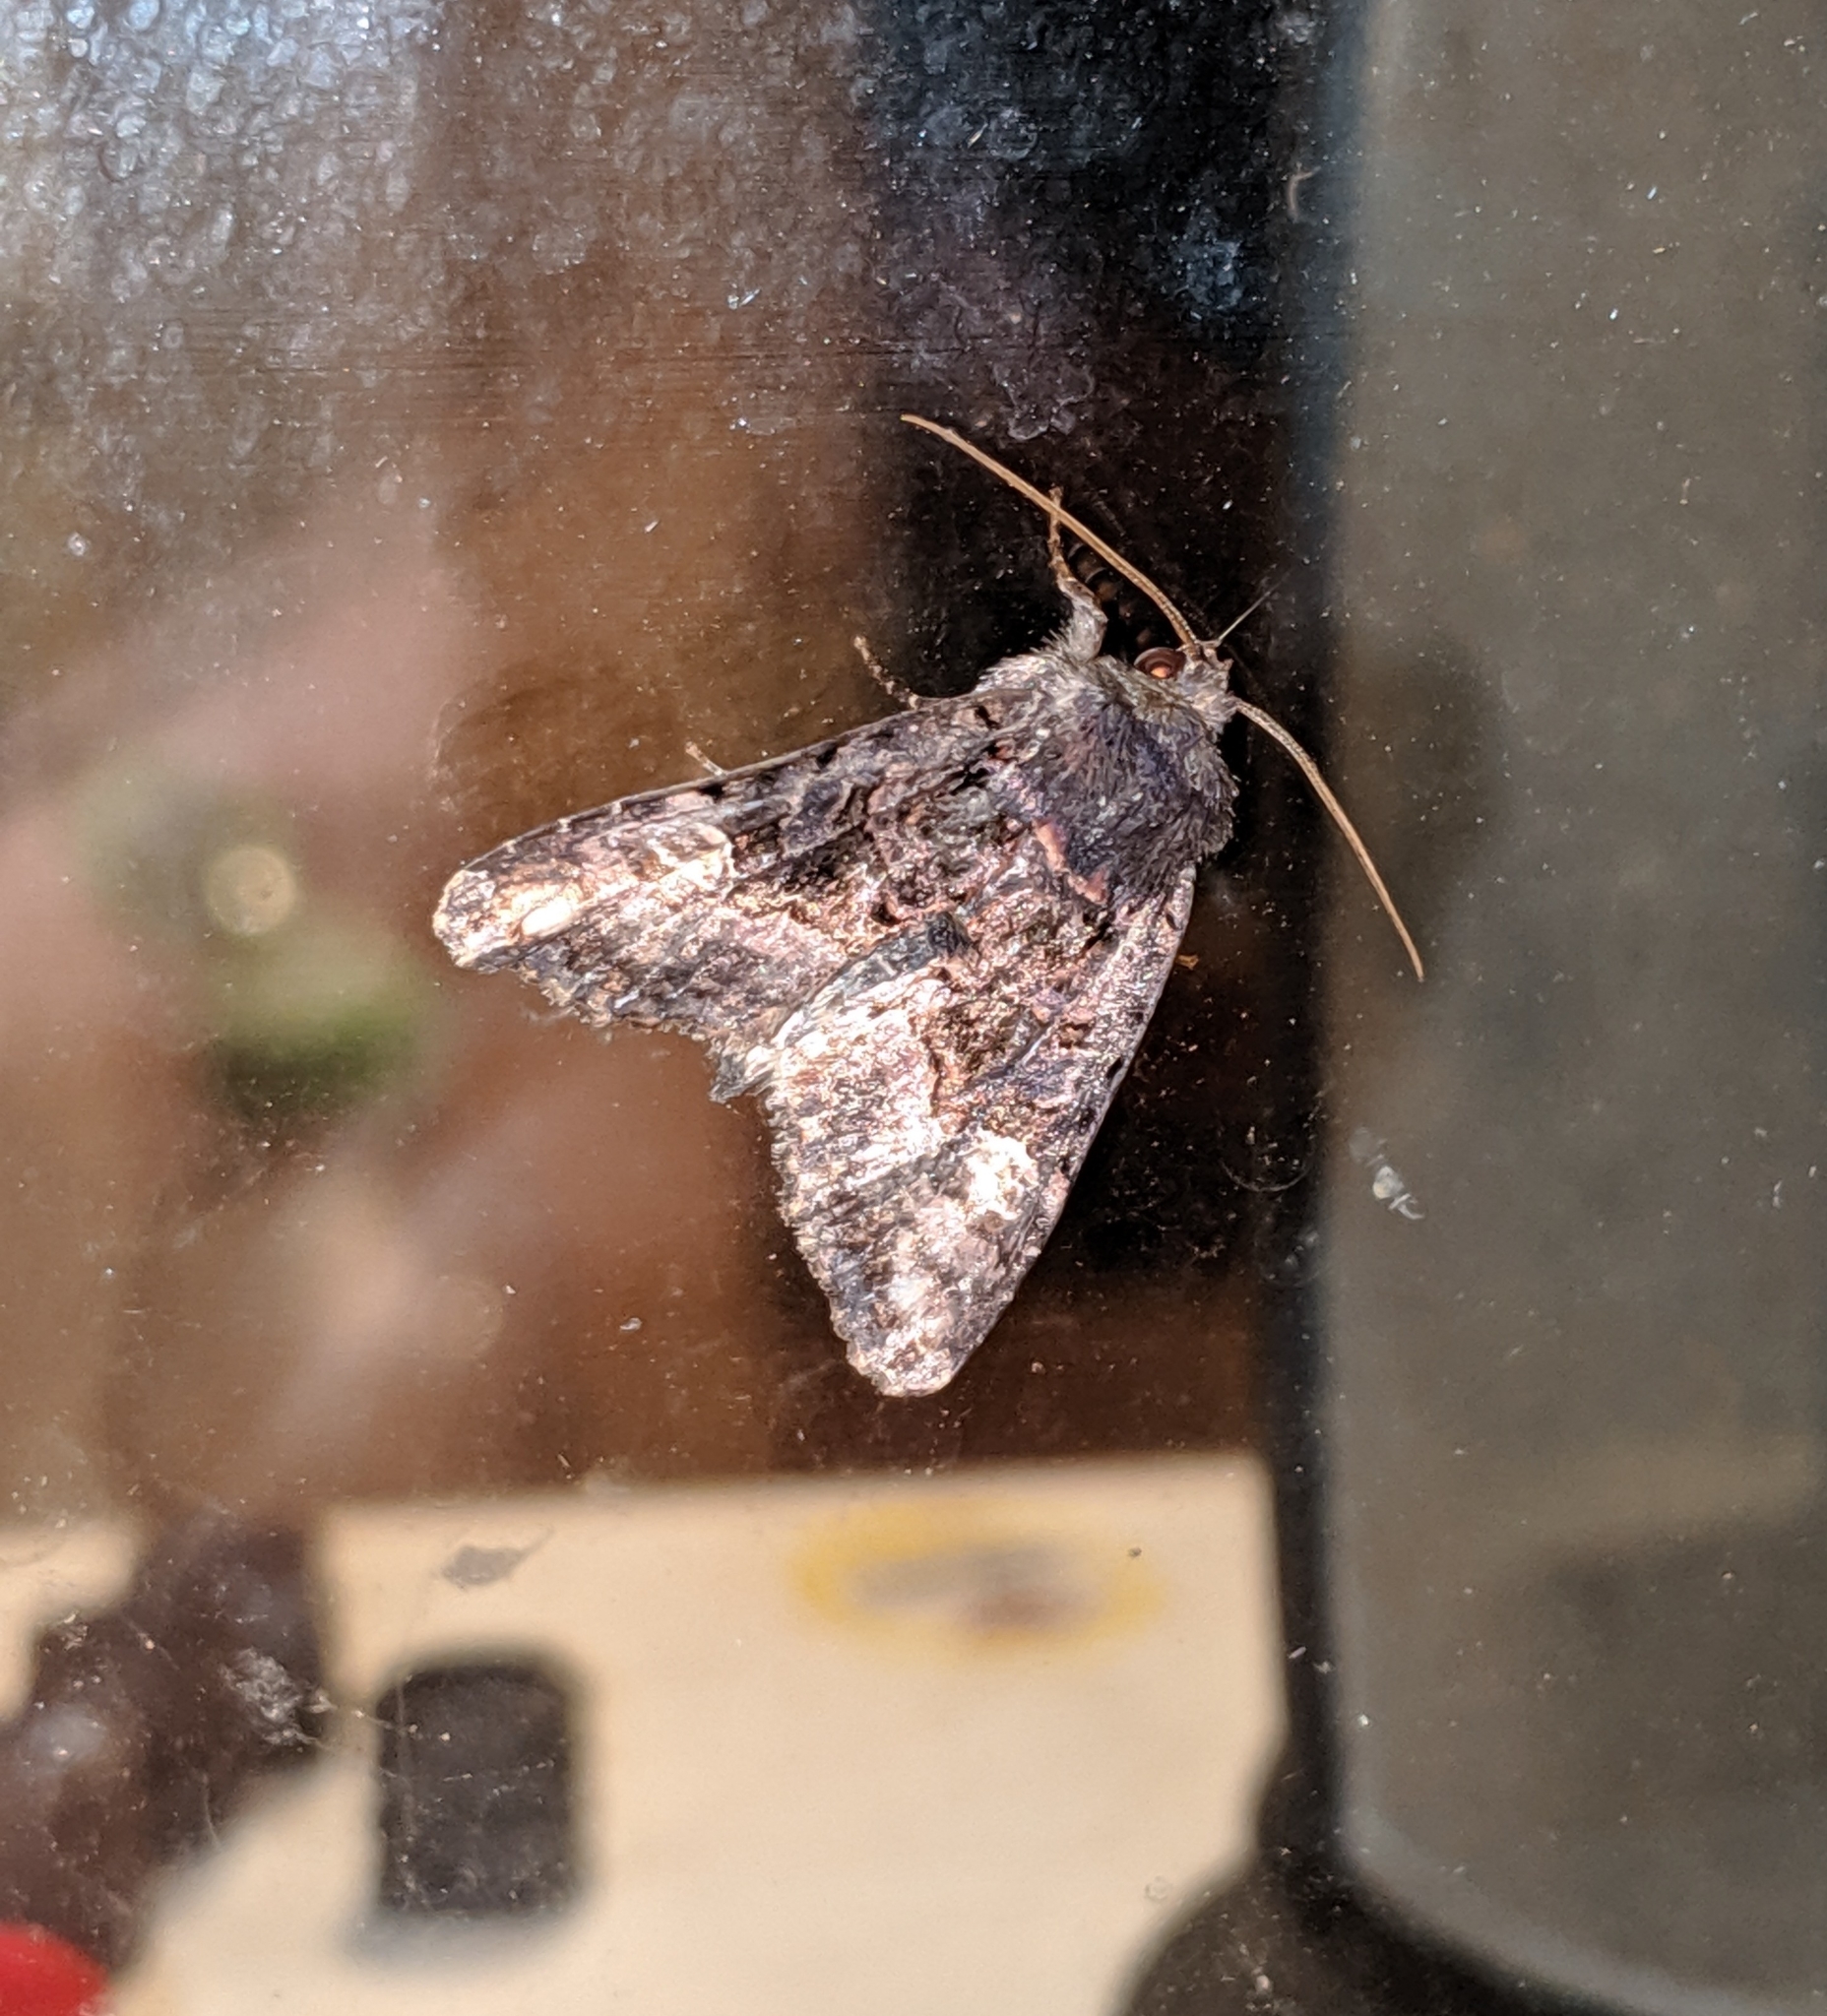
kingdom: Animalia
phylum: Arthropoda
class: Insecta
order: Lepidoptera
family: Noctuidae
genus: Euplexia
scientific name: Euplexia benesimilis
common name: American angle shades
